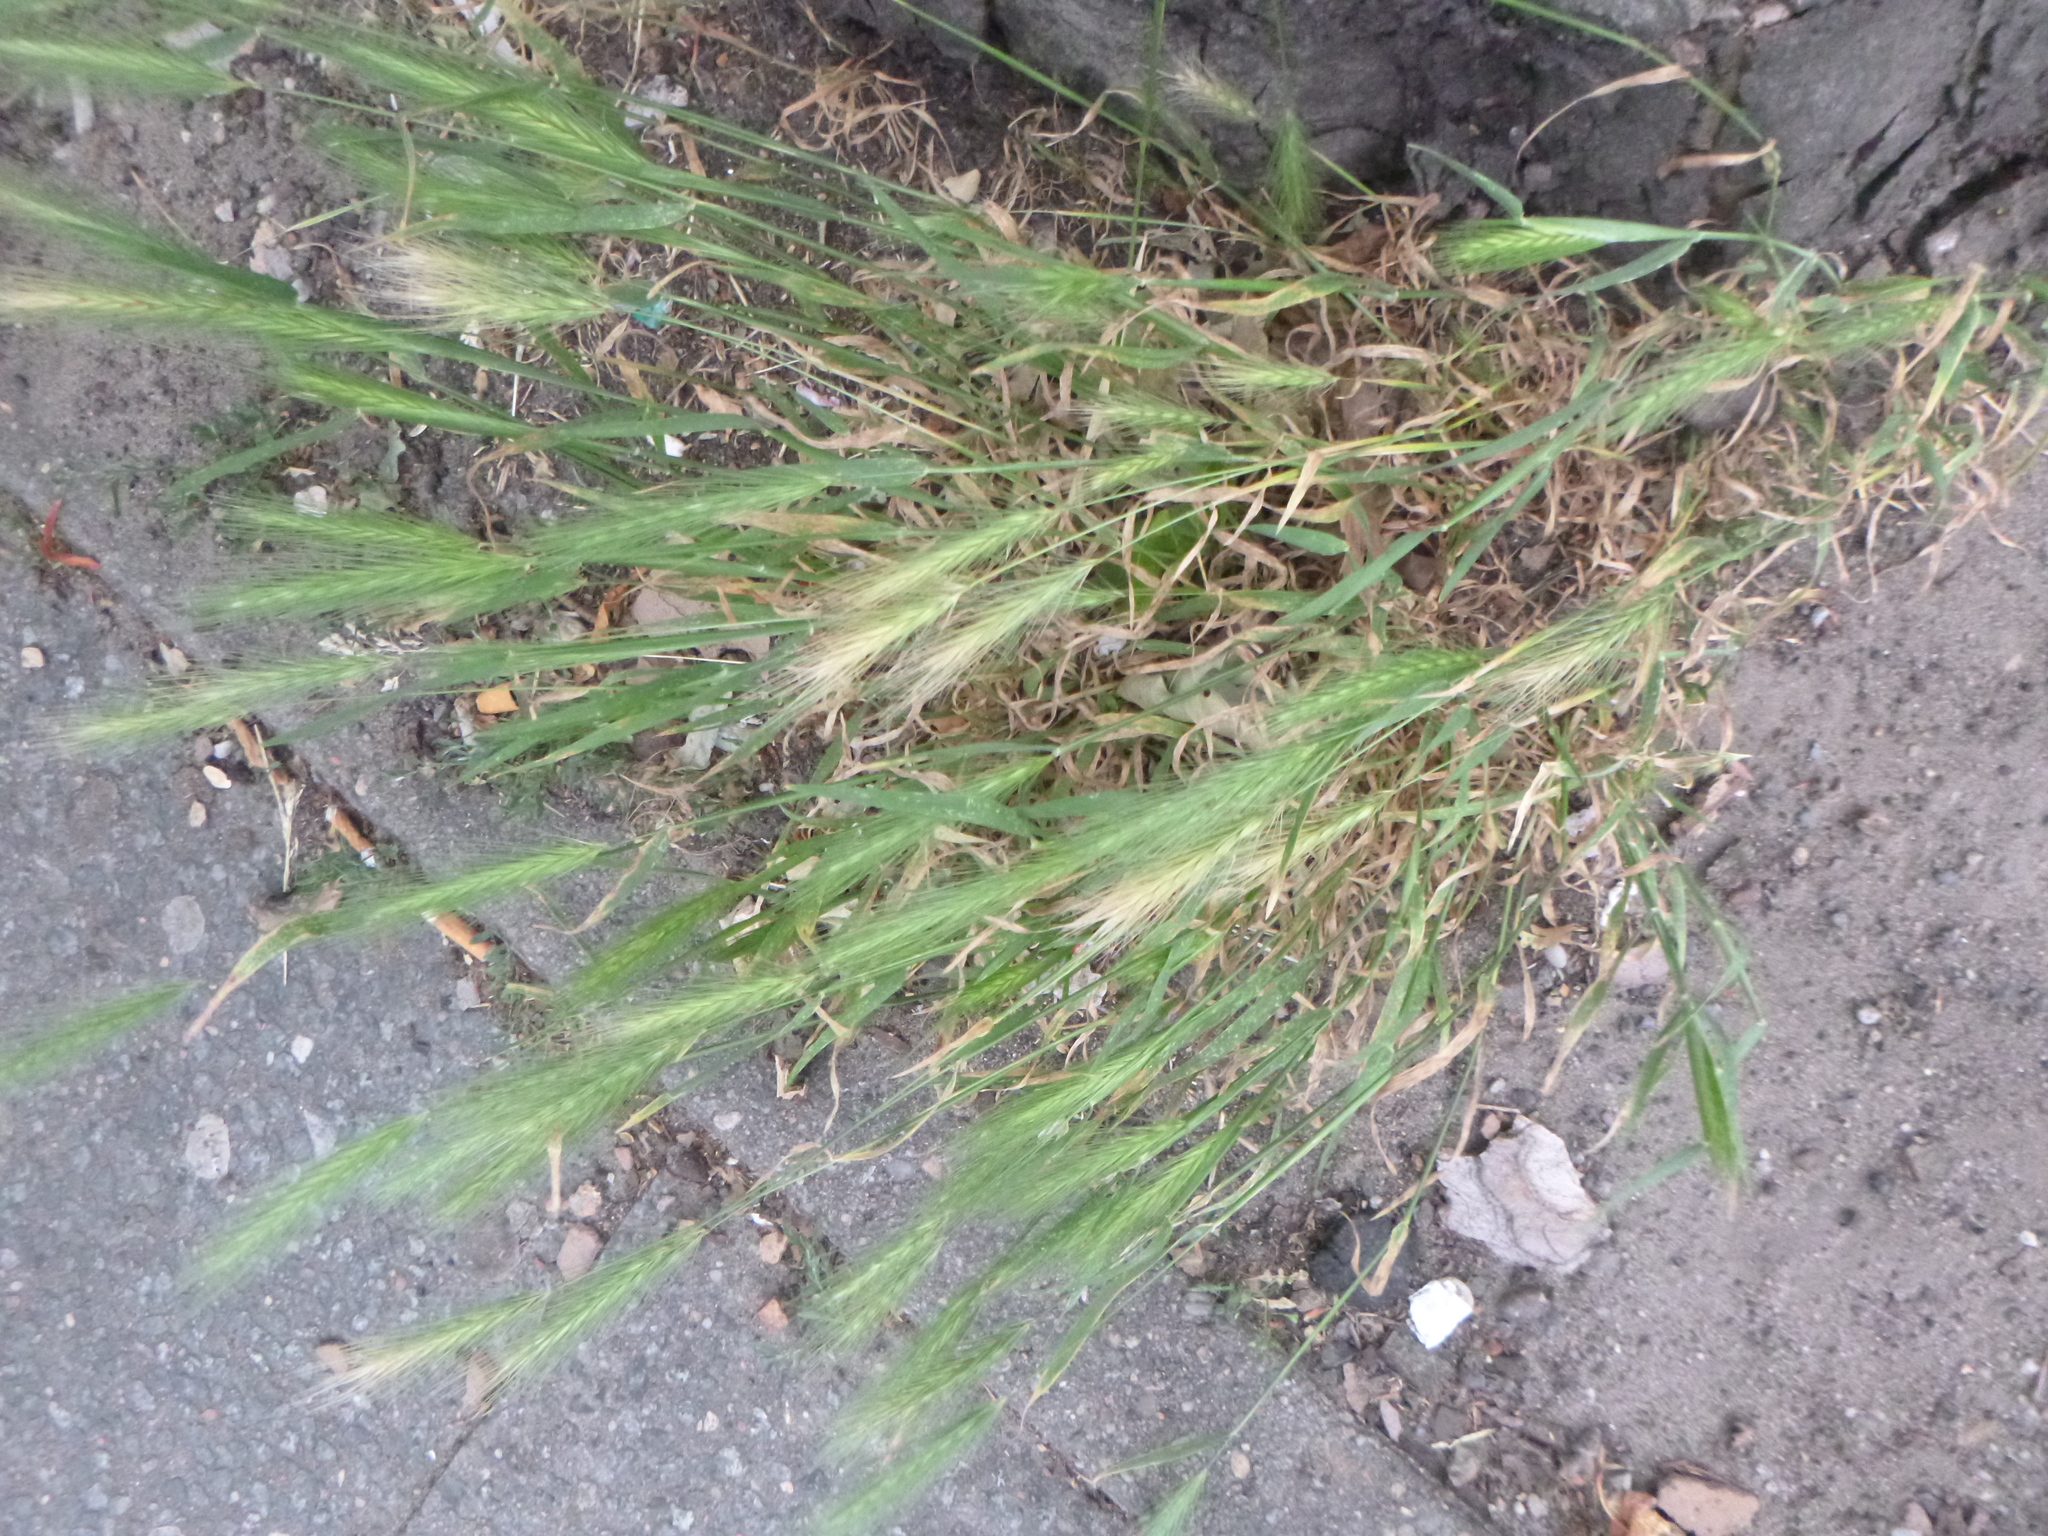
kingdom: Plantae
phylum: Tracheophyta
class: Liliopsida
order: Poales
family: Poaceae
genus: Hordeum
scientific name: Hordeum murinum
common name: Wall barley
